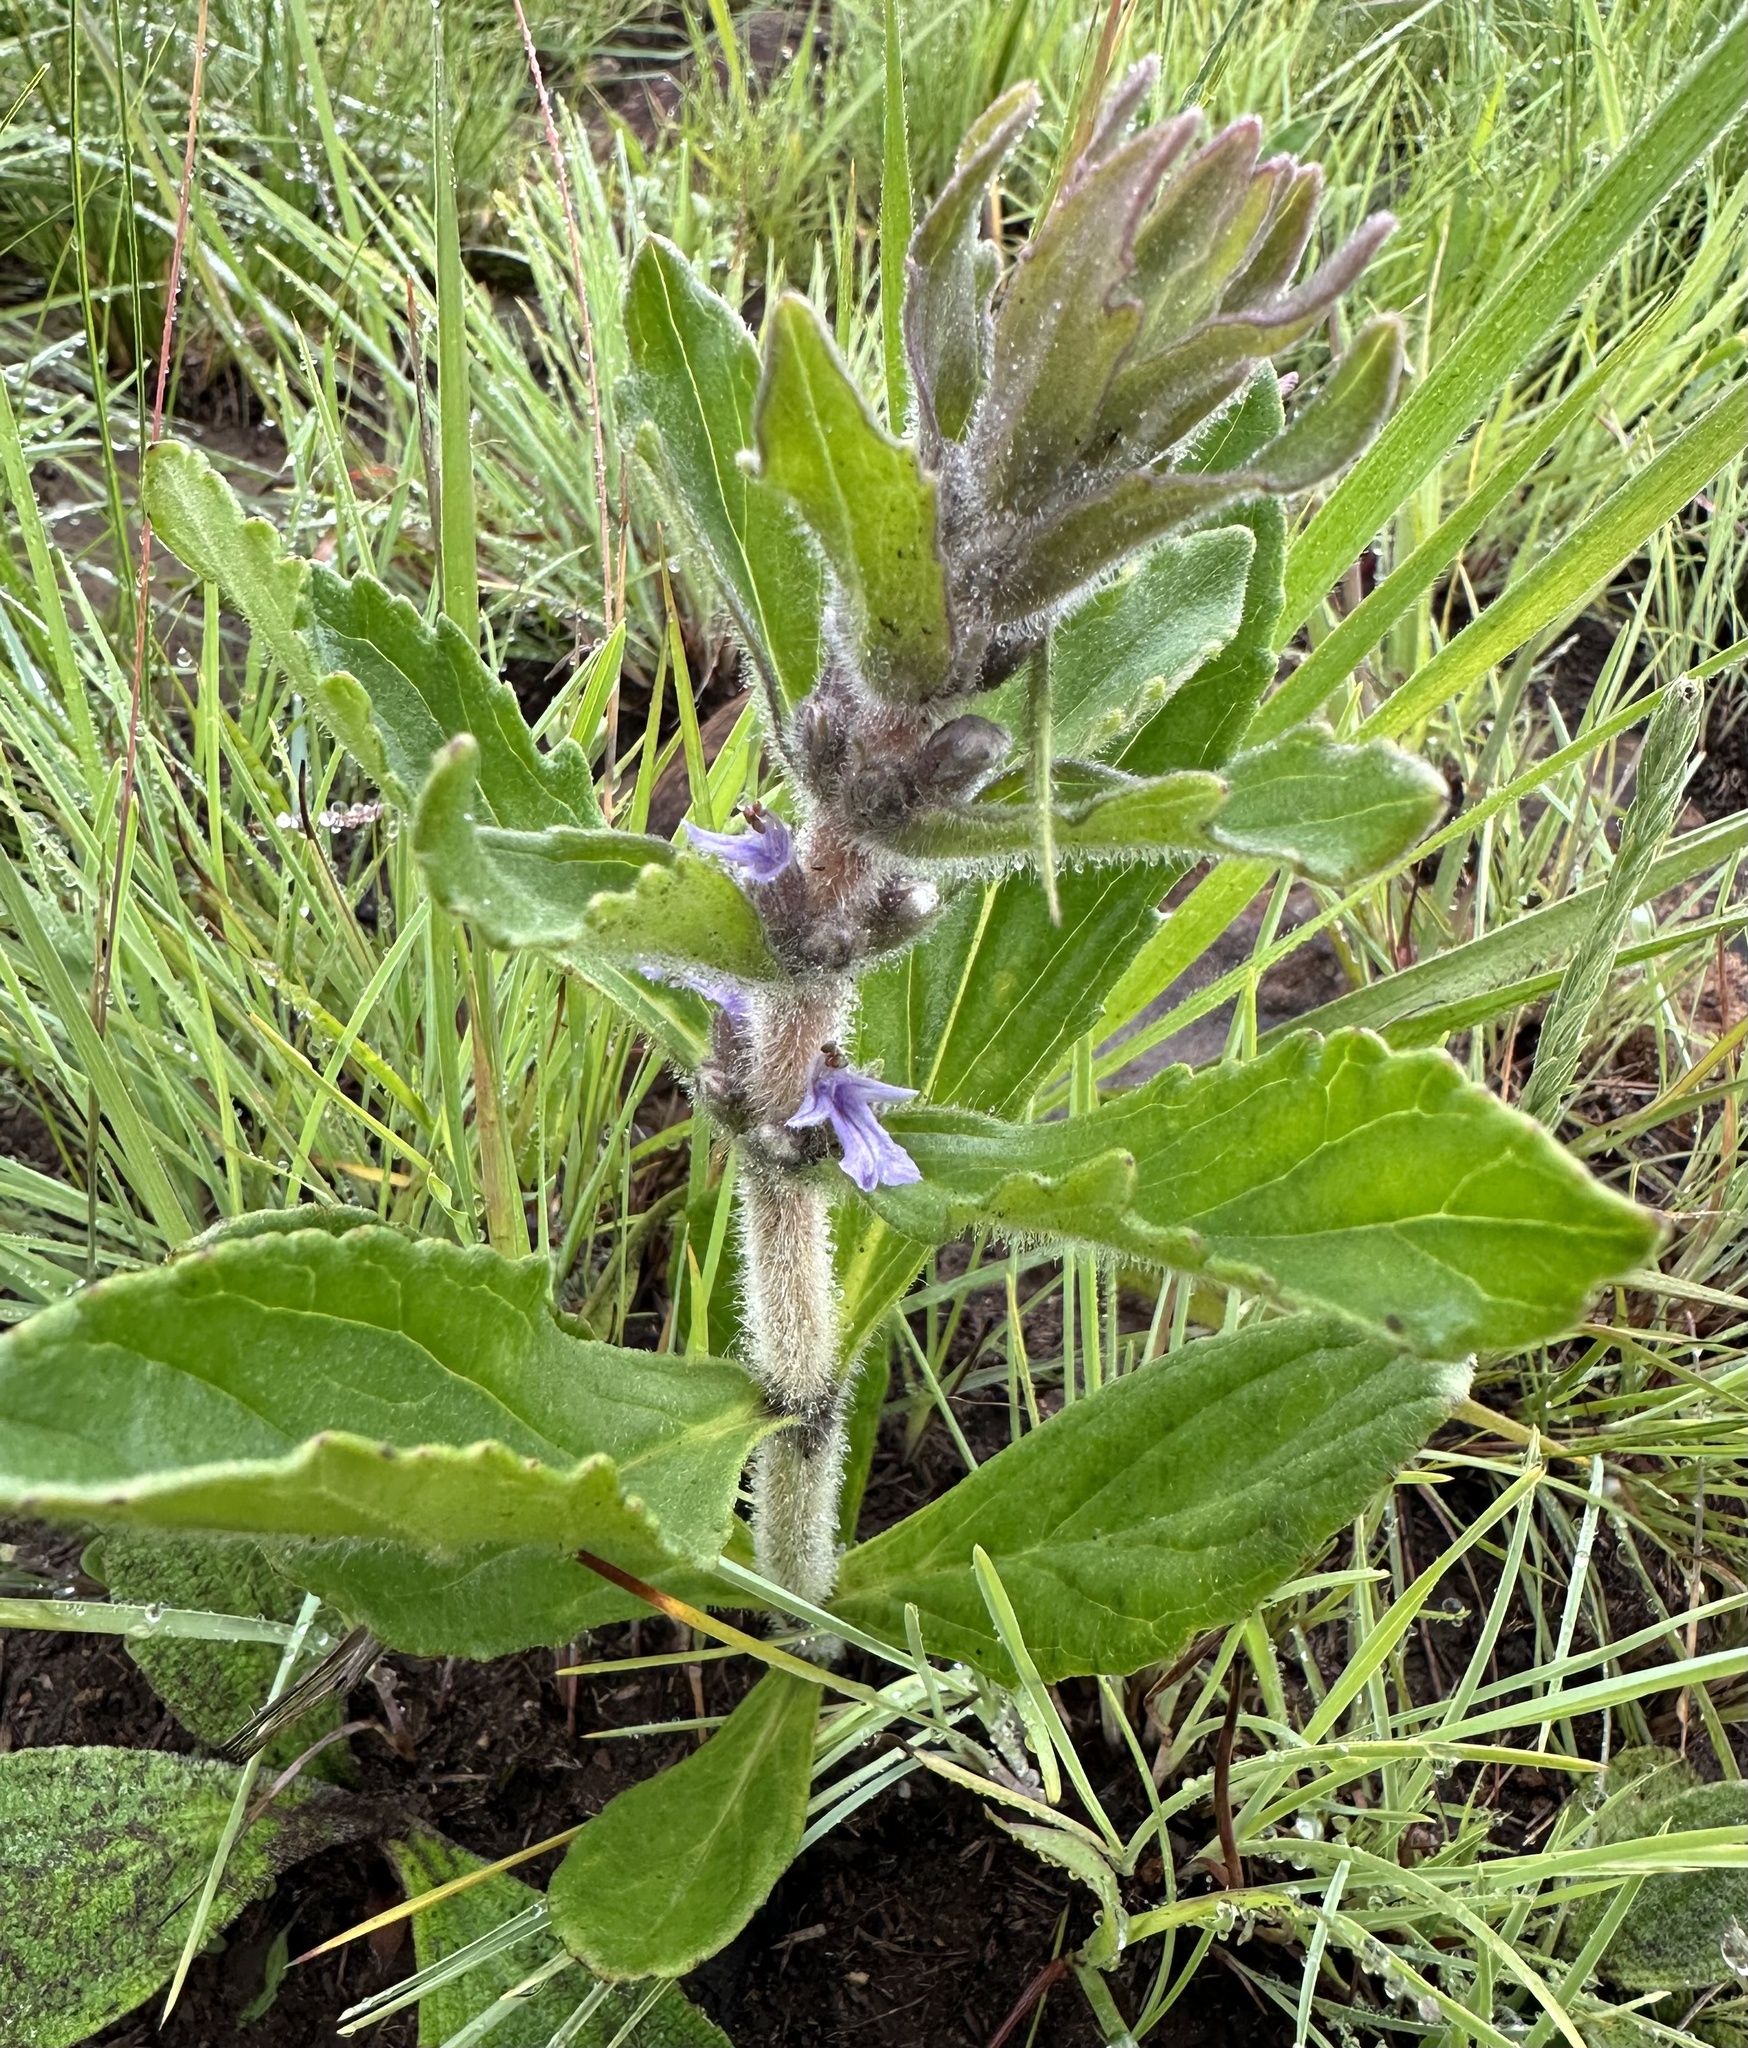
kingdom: Plantae
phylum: Tracheophyta
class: Magnoliopsida
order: Lamiales
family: Lamiaceae
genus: Ajuga
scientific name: Ajuga ophrydis
